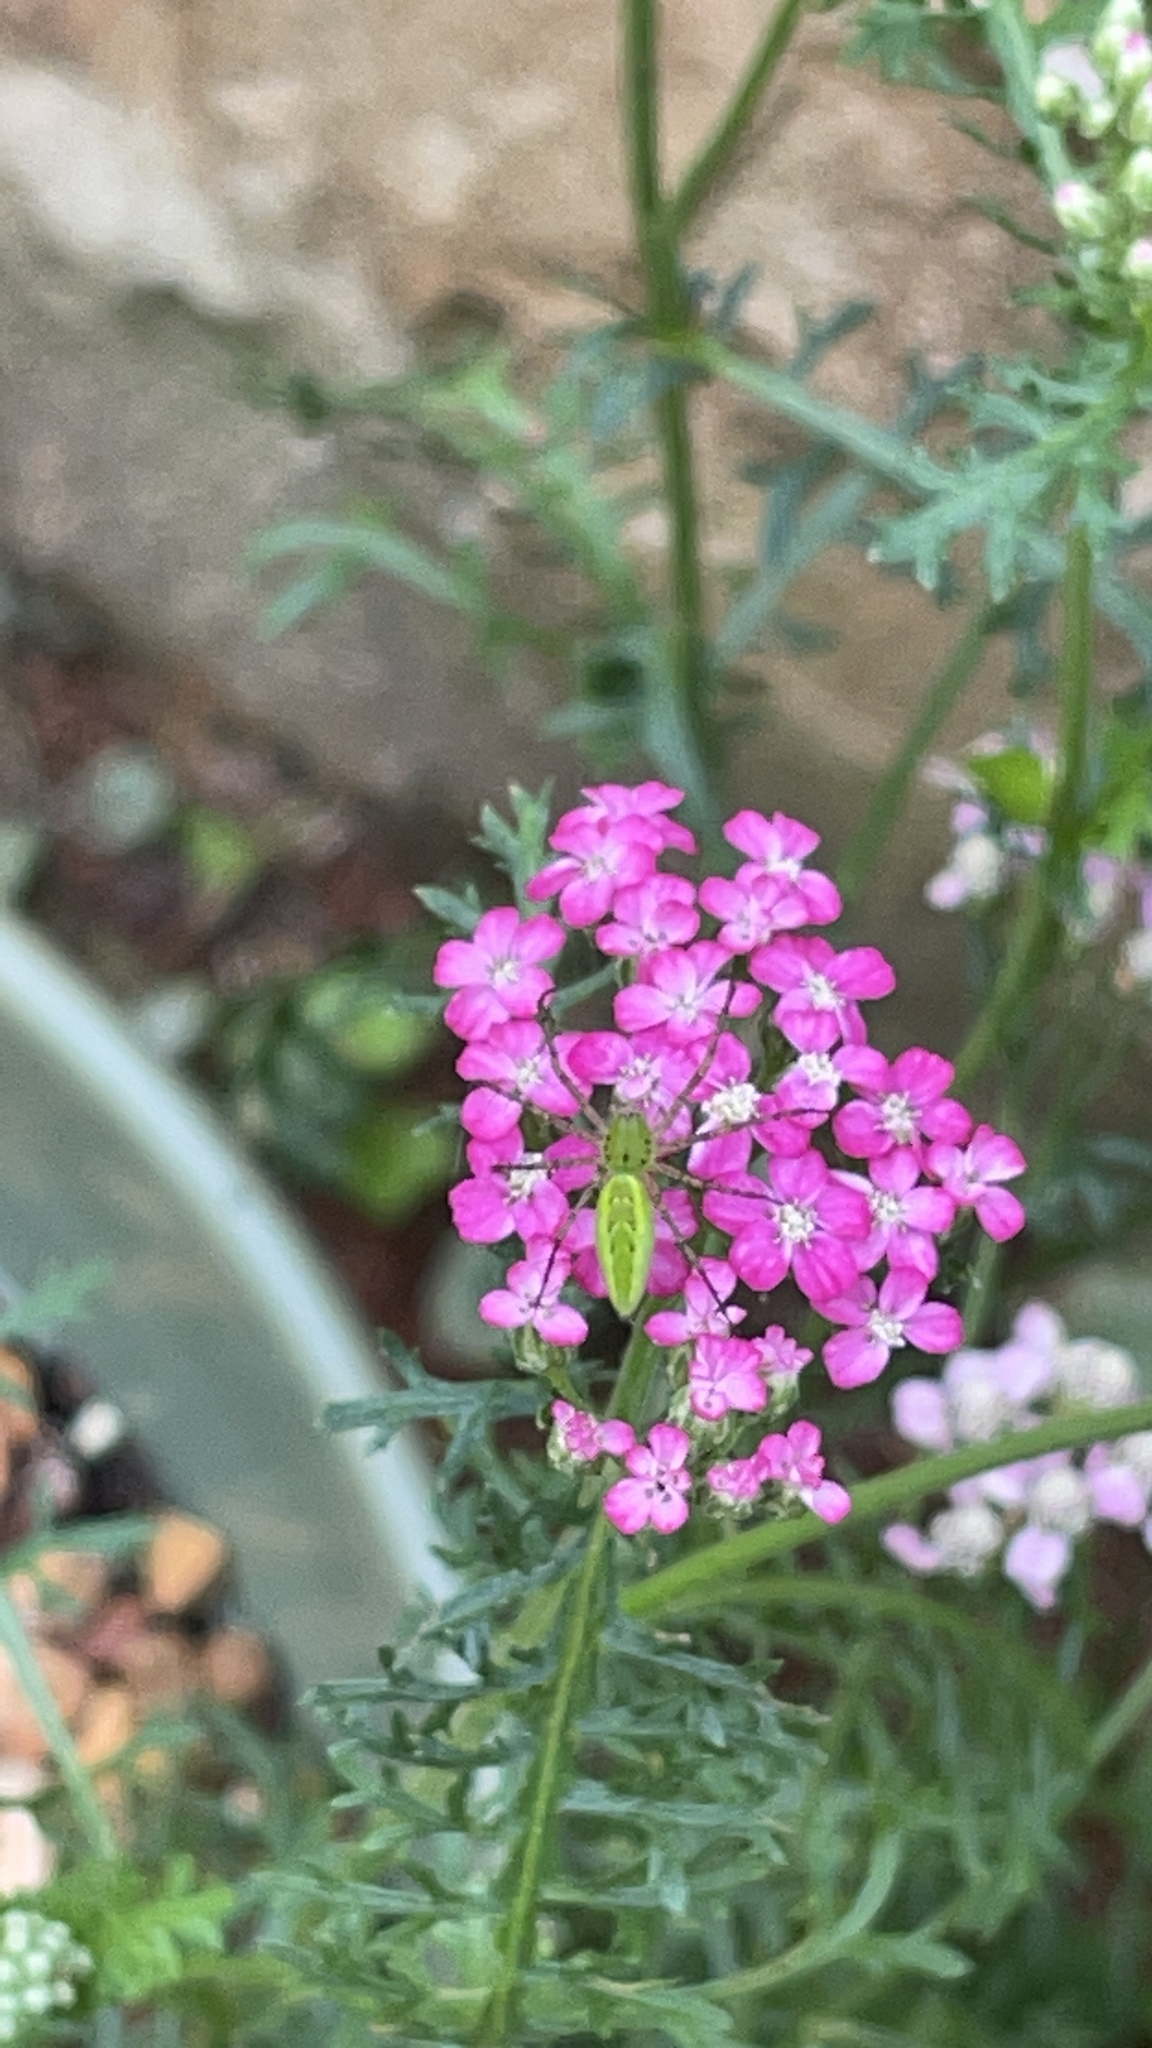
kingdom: Animalia
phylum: Arthropoda
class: Arachnida
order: Araneae
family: Oxyopidae
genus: Peucetia
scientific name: Peucetia viridans
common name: Lynx spiders
